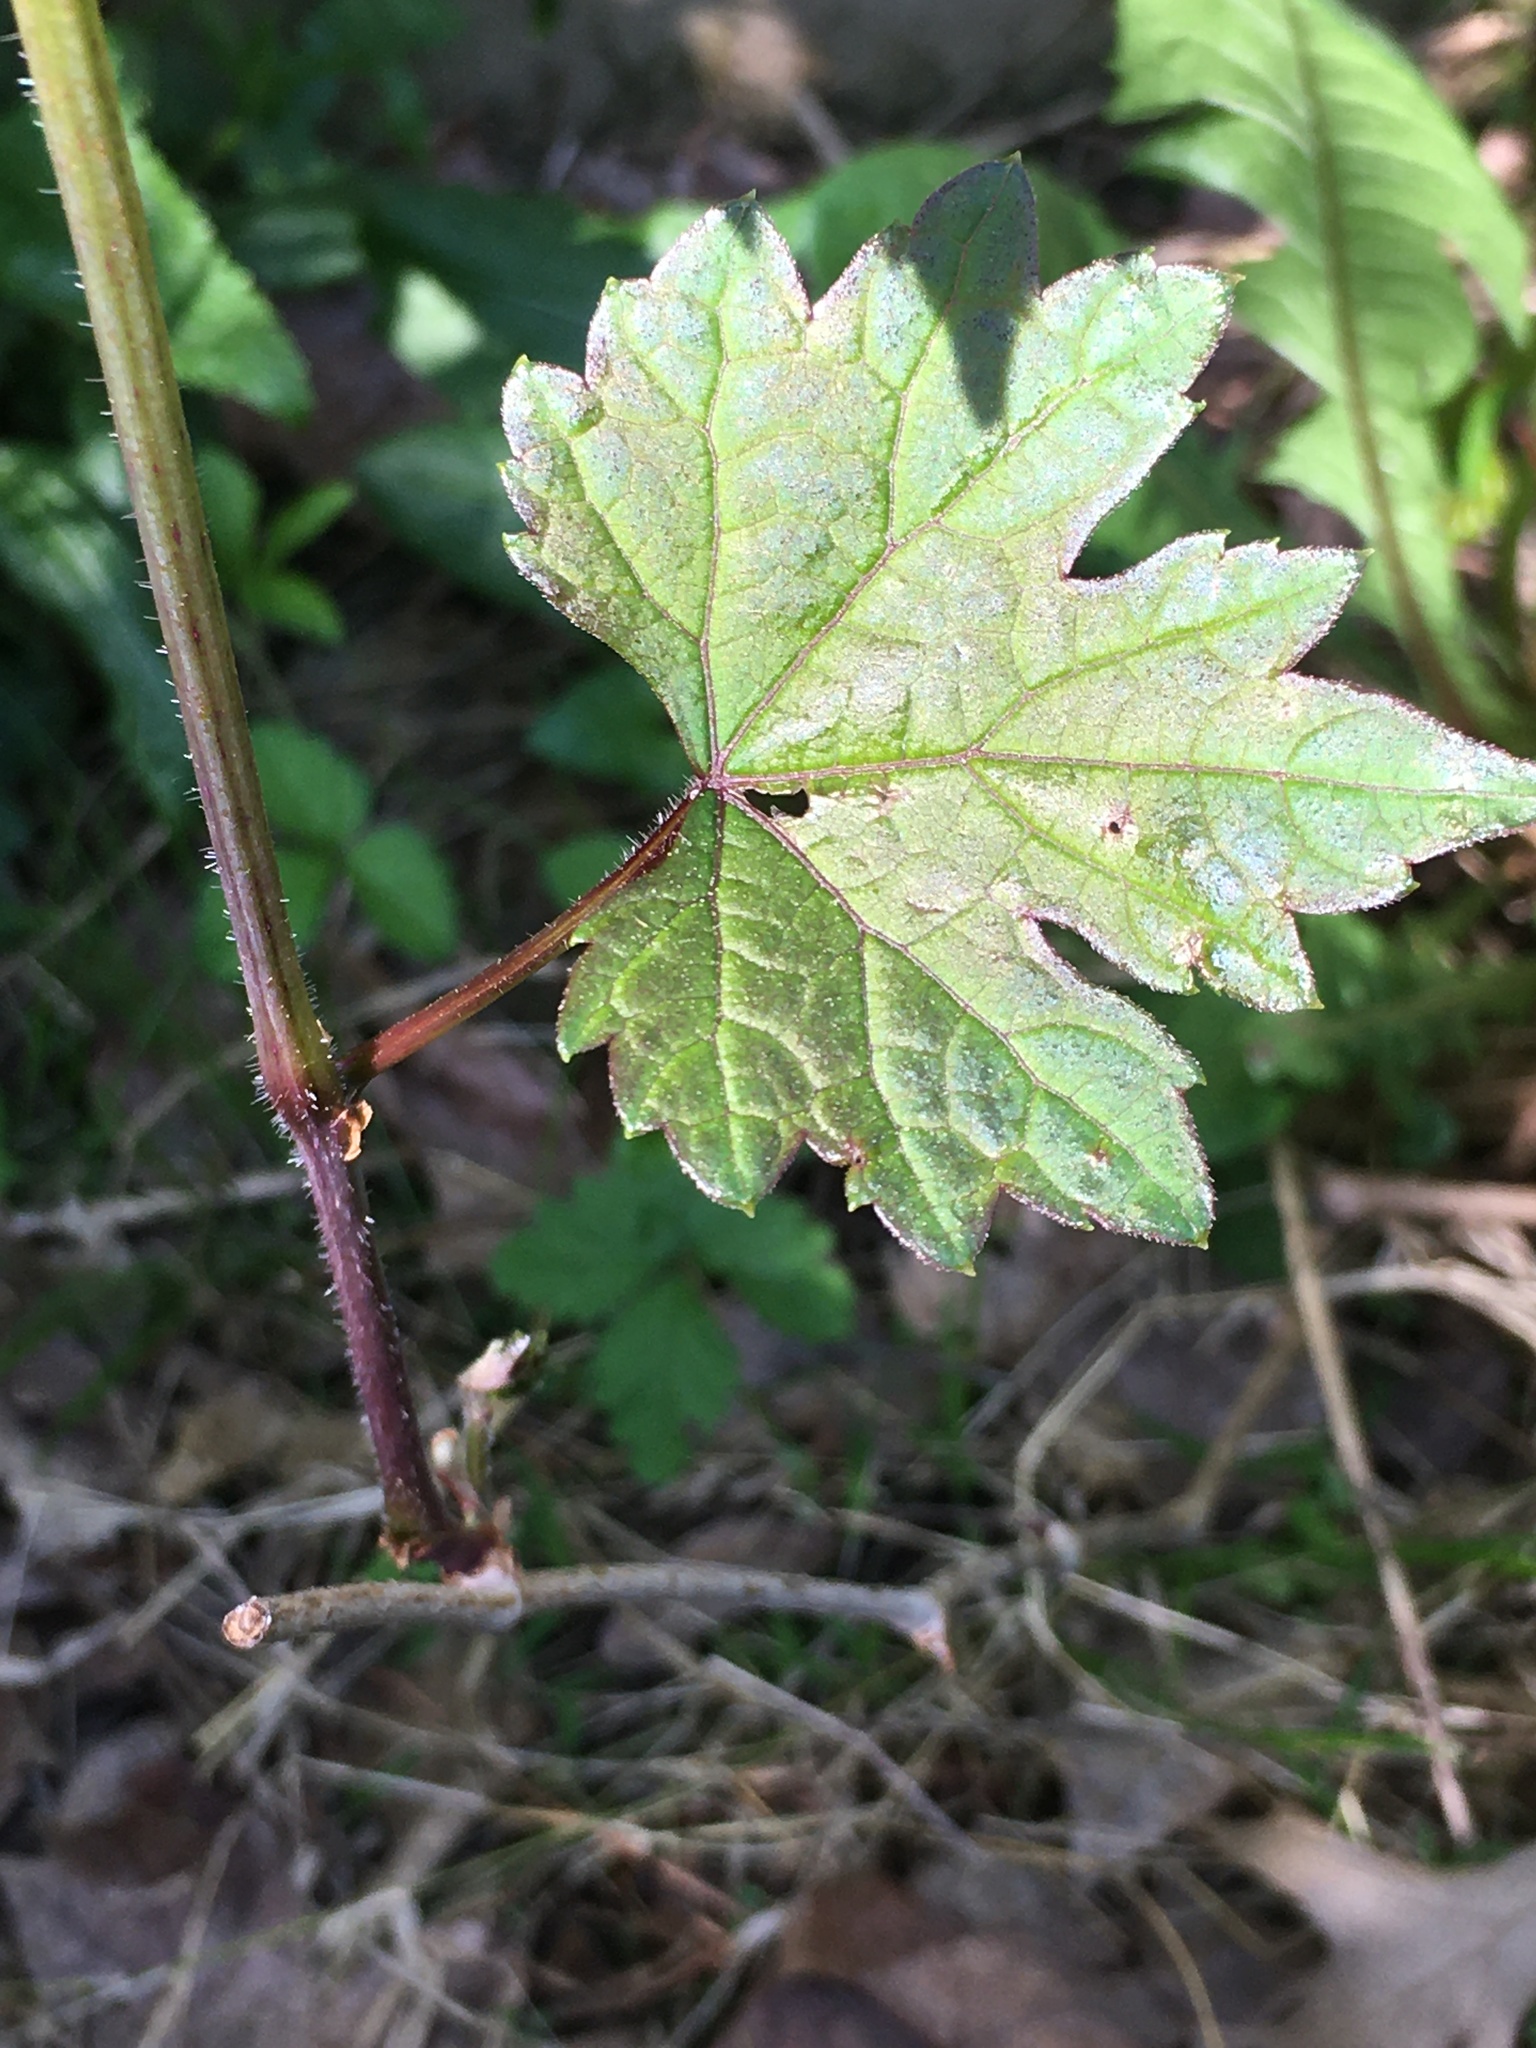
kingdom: Plantae
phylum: Tracheophyta
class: Magnoliopsida
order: Vitales
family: Vitaceae
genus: Ampelopsis
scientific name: Ampelopsis glandulosa
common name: Amur peppervine
